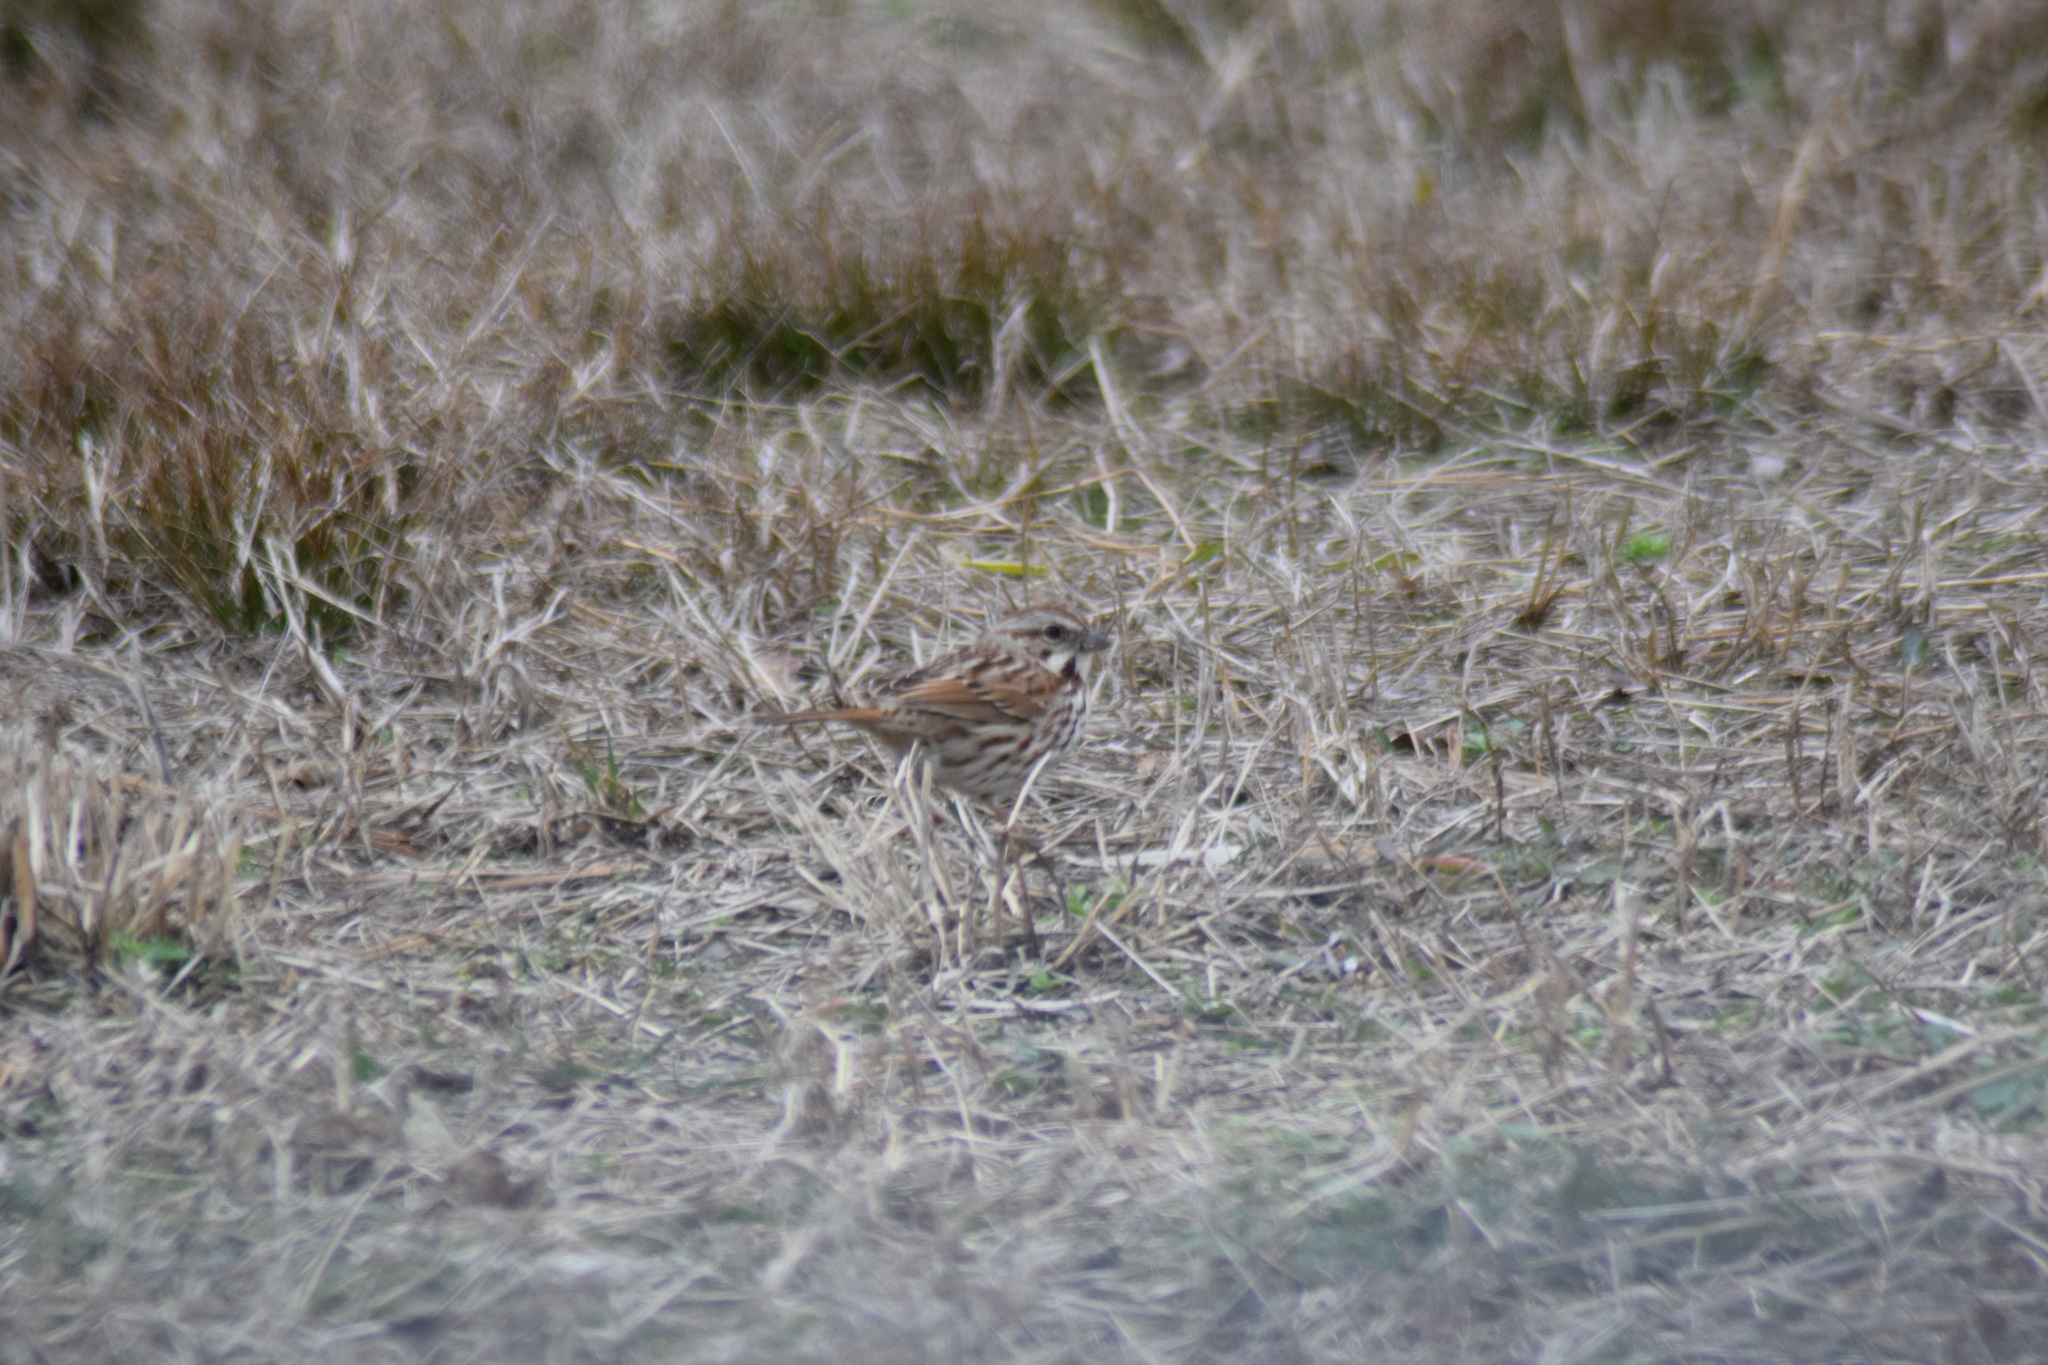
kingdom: Animalia
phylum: Chordata
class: Aves
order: Passeriformes
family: Passerellidae
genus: Melospiza
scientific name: Melospiza melodia
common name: Song sparrow
